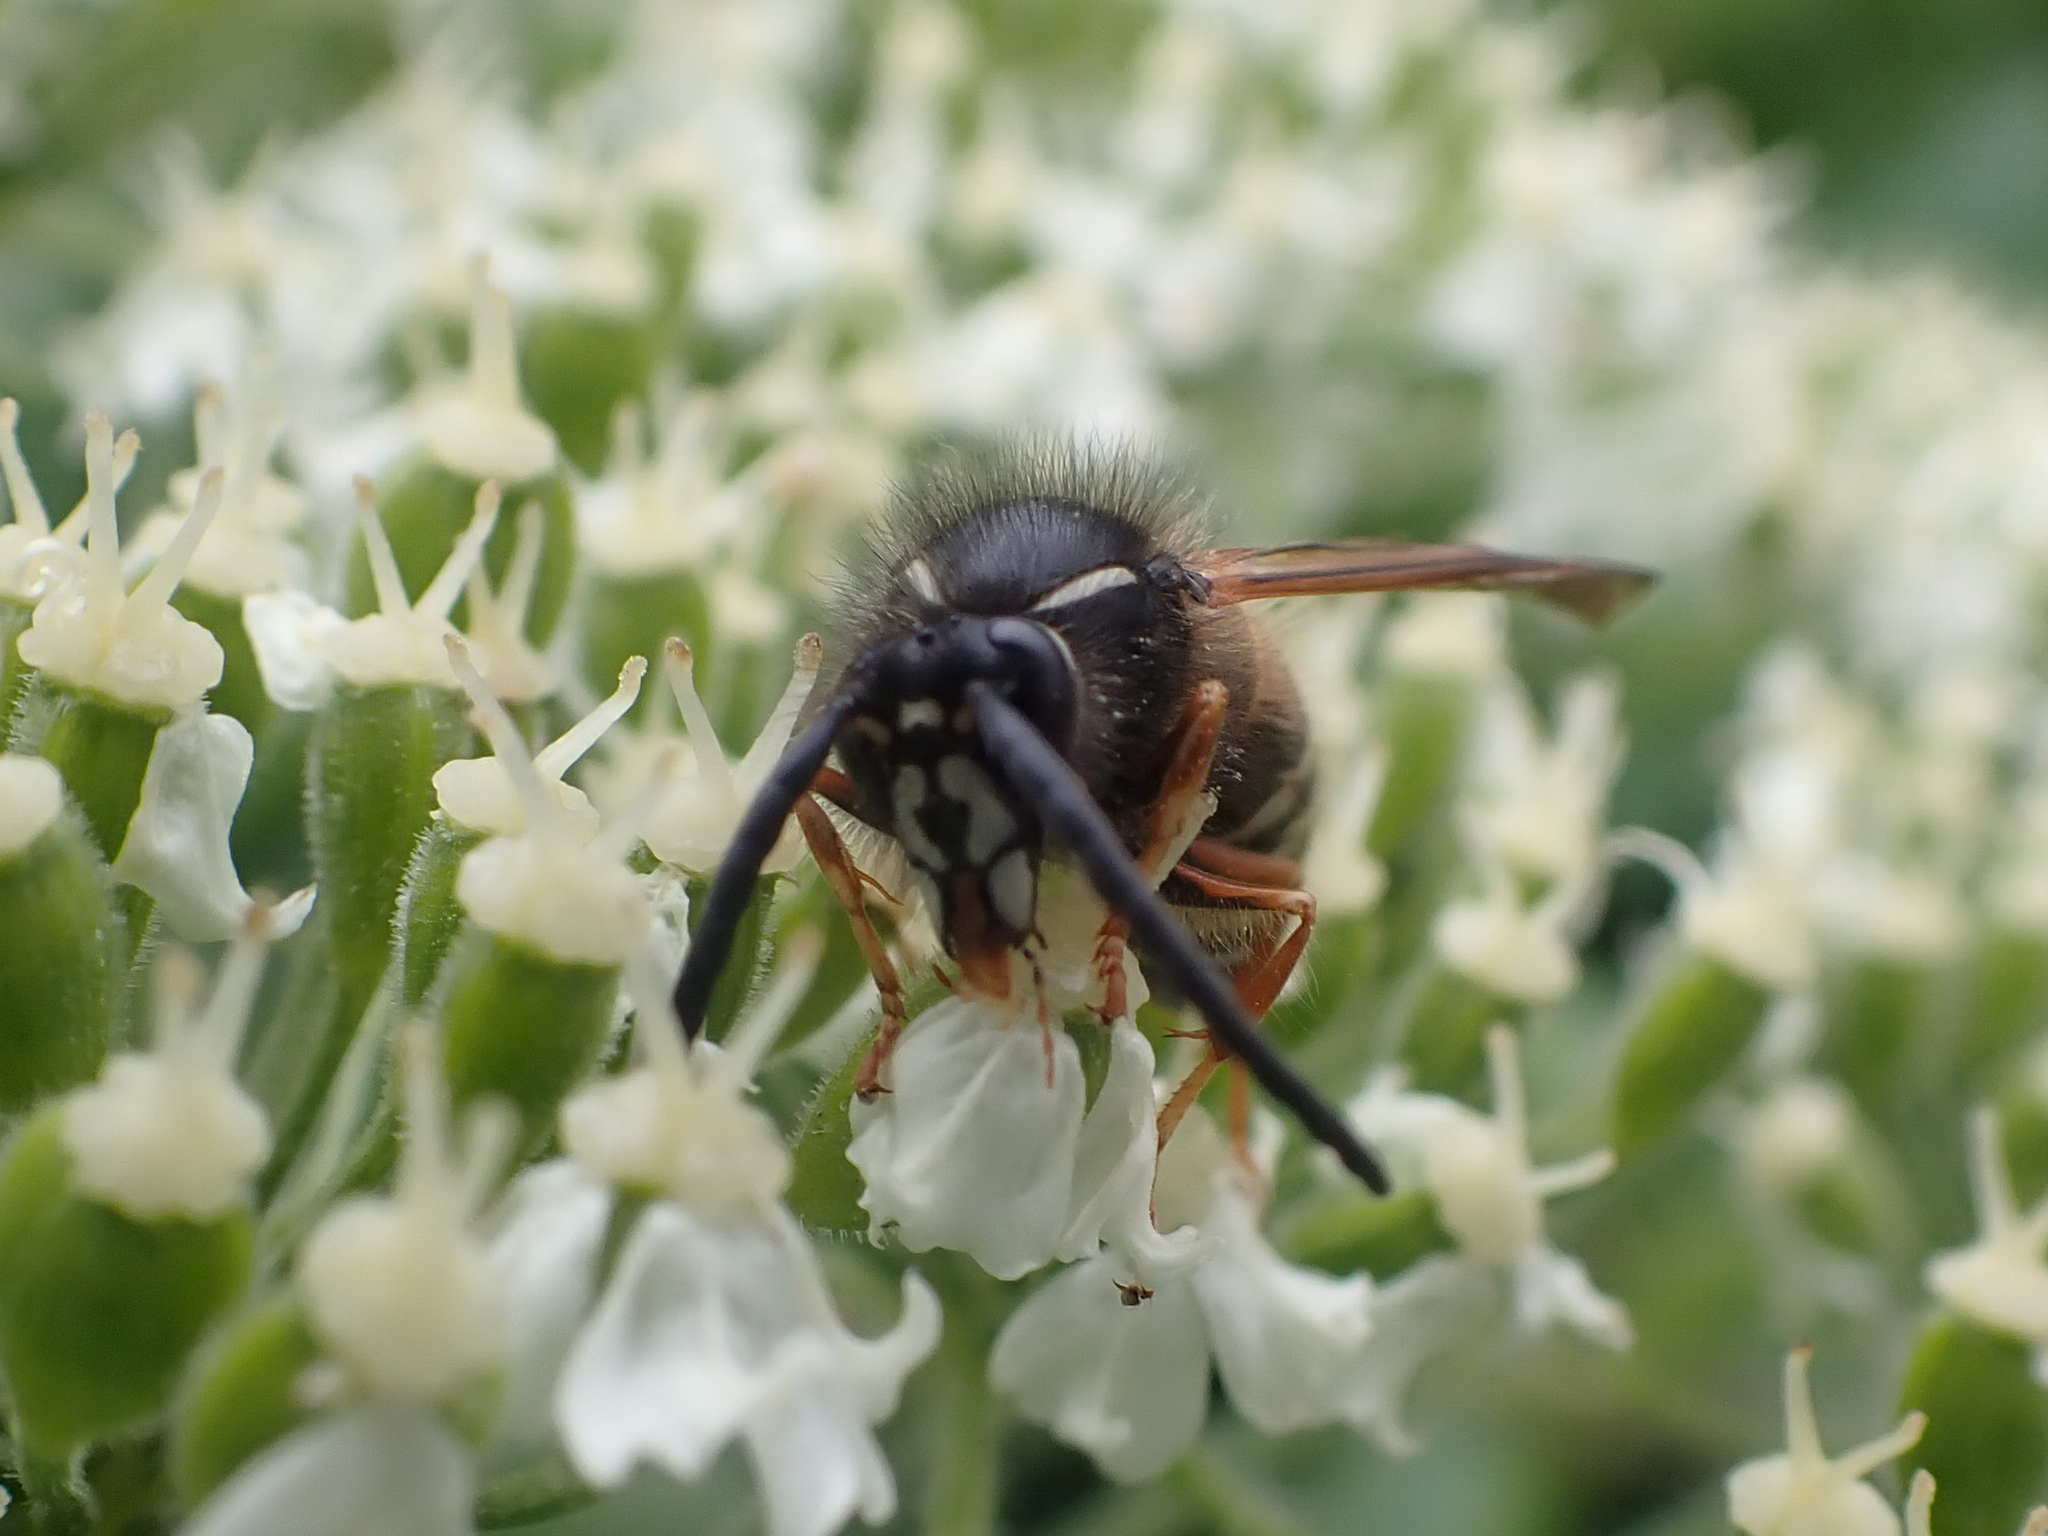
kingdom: Animalia
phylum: Arthropoda
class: Insecta
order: Hymenoptera
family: Vespidae
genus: Dolichovespula
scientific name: Dolichovespula norwegica
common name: Norwegian wasp
